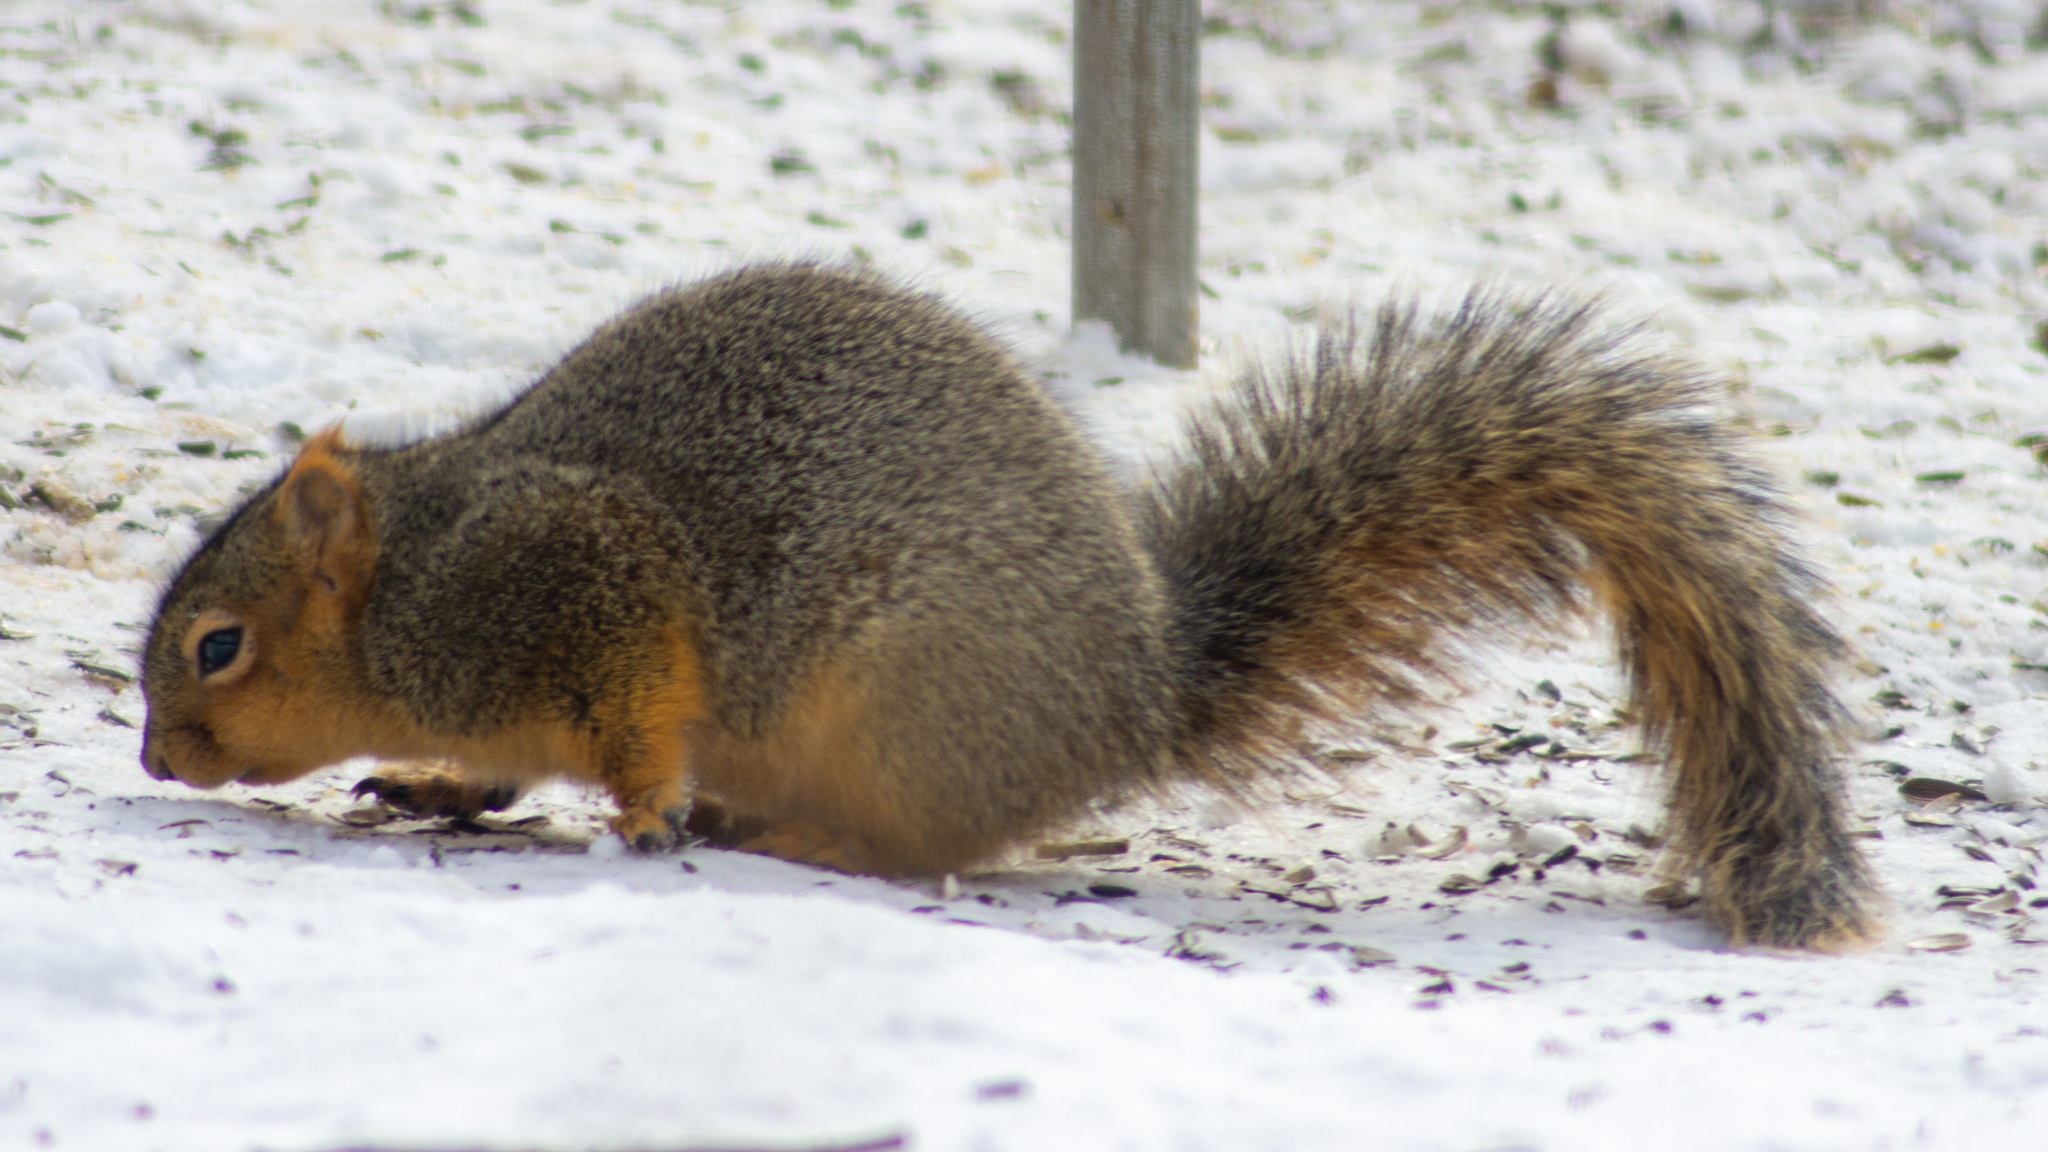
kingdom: Animalia
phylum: Chordata
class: Mammalia
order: Rodentia
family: Sciuridae
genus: Sciurus
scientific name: Sciurus niger
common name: Fox squirrel
